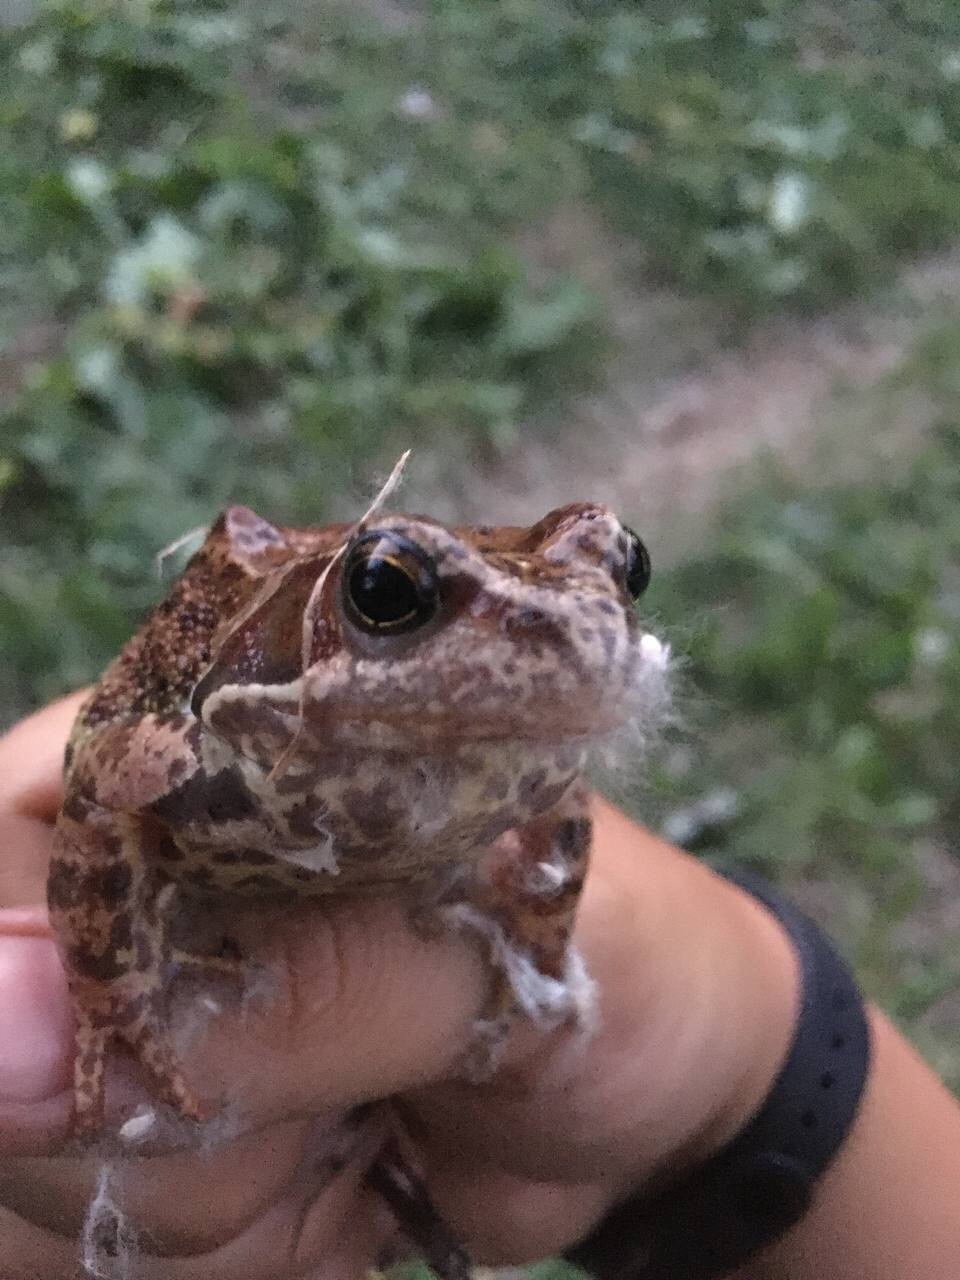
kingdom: Animalia
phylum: Chordata
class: Amphibia
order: Anura
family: Ranidae
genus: Rana
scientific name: Rana temporaria
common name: Common frog
